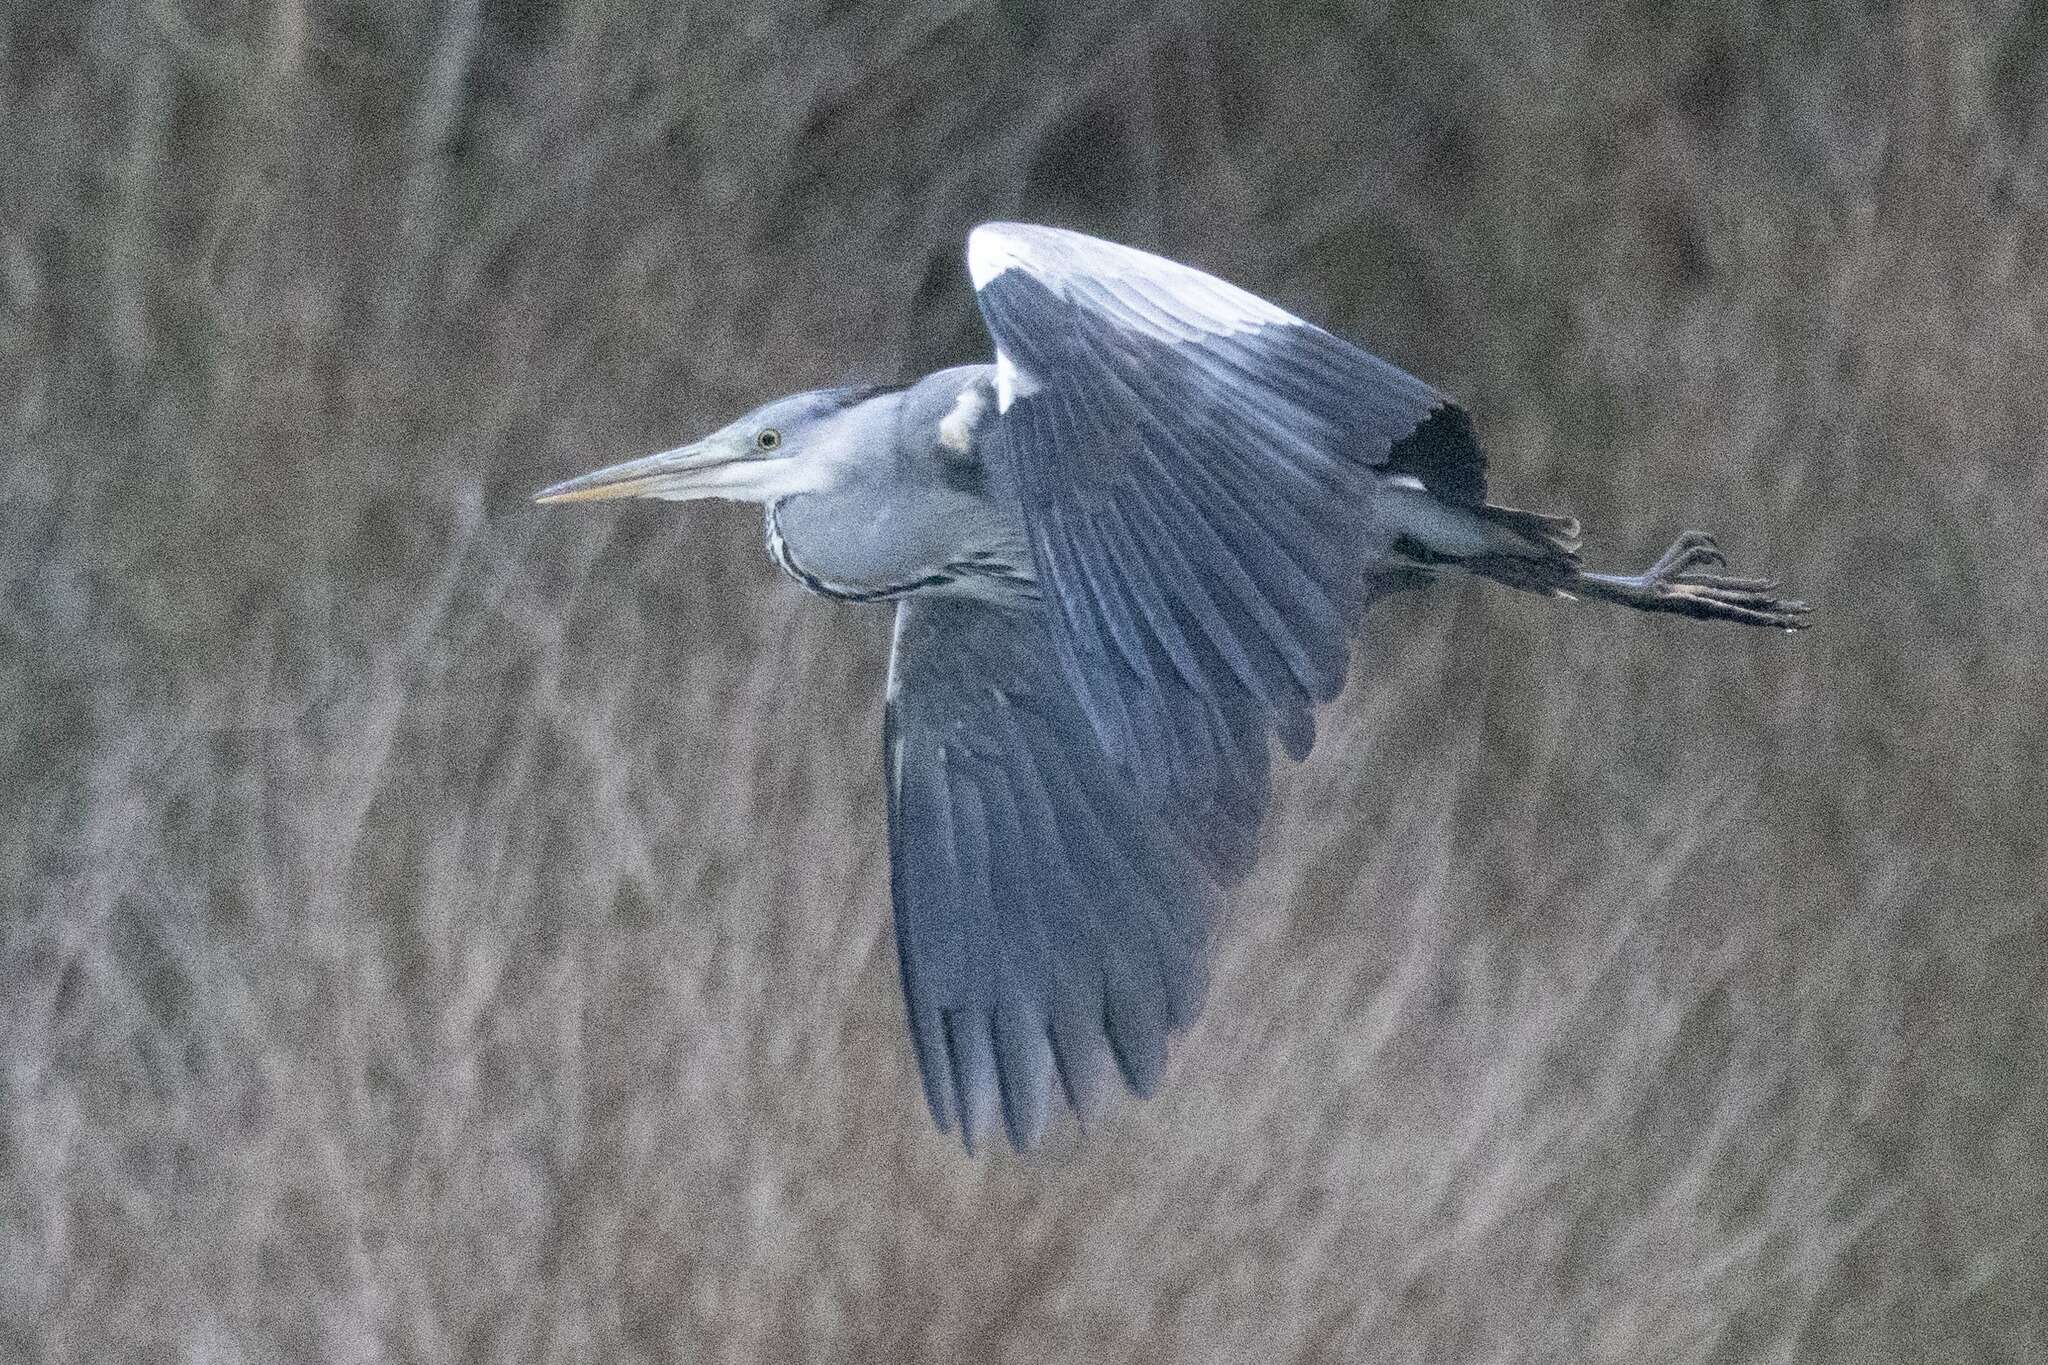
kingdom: Animalia
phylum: Chordata
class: Aves
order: Pelecaniformes
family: Ardeidae
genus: Ardea
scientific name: Ardea cinerea
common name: Grey heron
